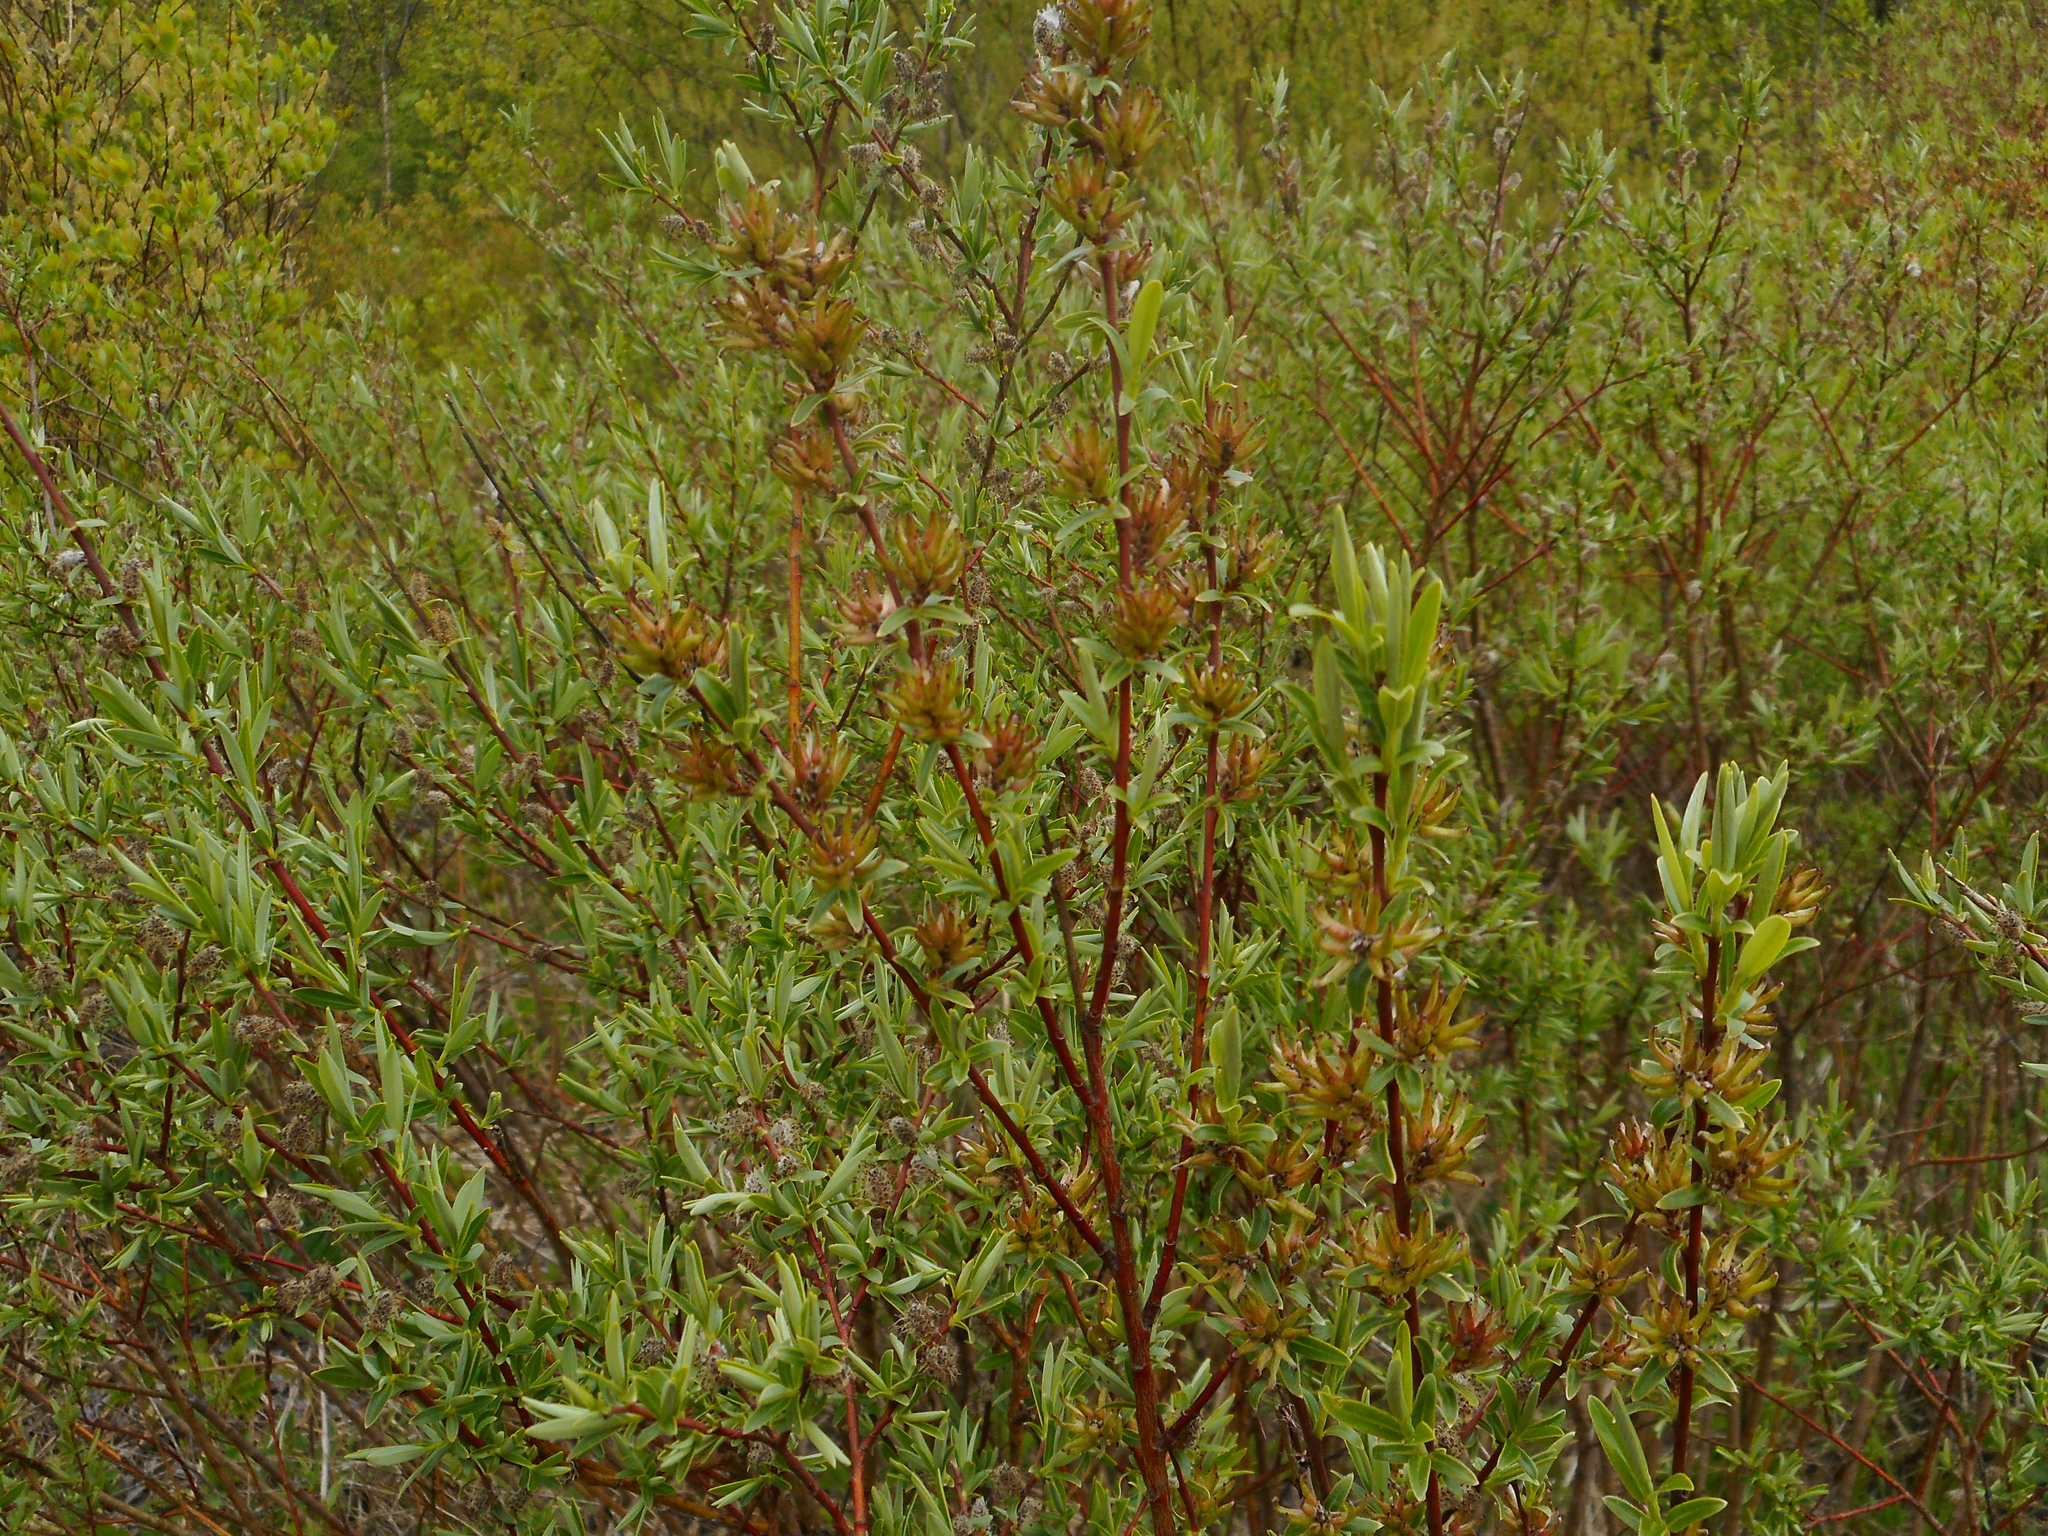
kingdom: Plantae
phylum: Tracheophyta
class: Magnoliopsida
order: Malpighiales
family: Salicaceae
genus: Salix
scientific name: Salix rosmarinifolia
